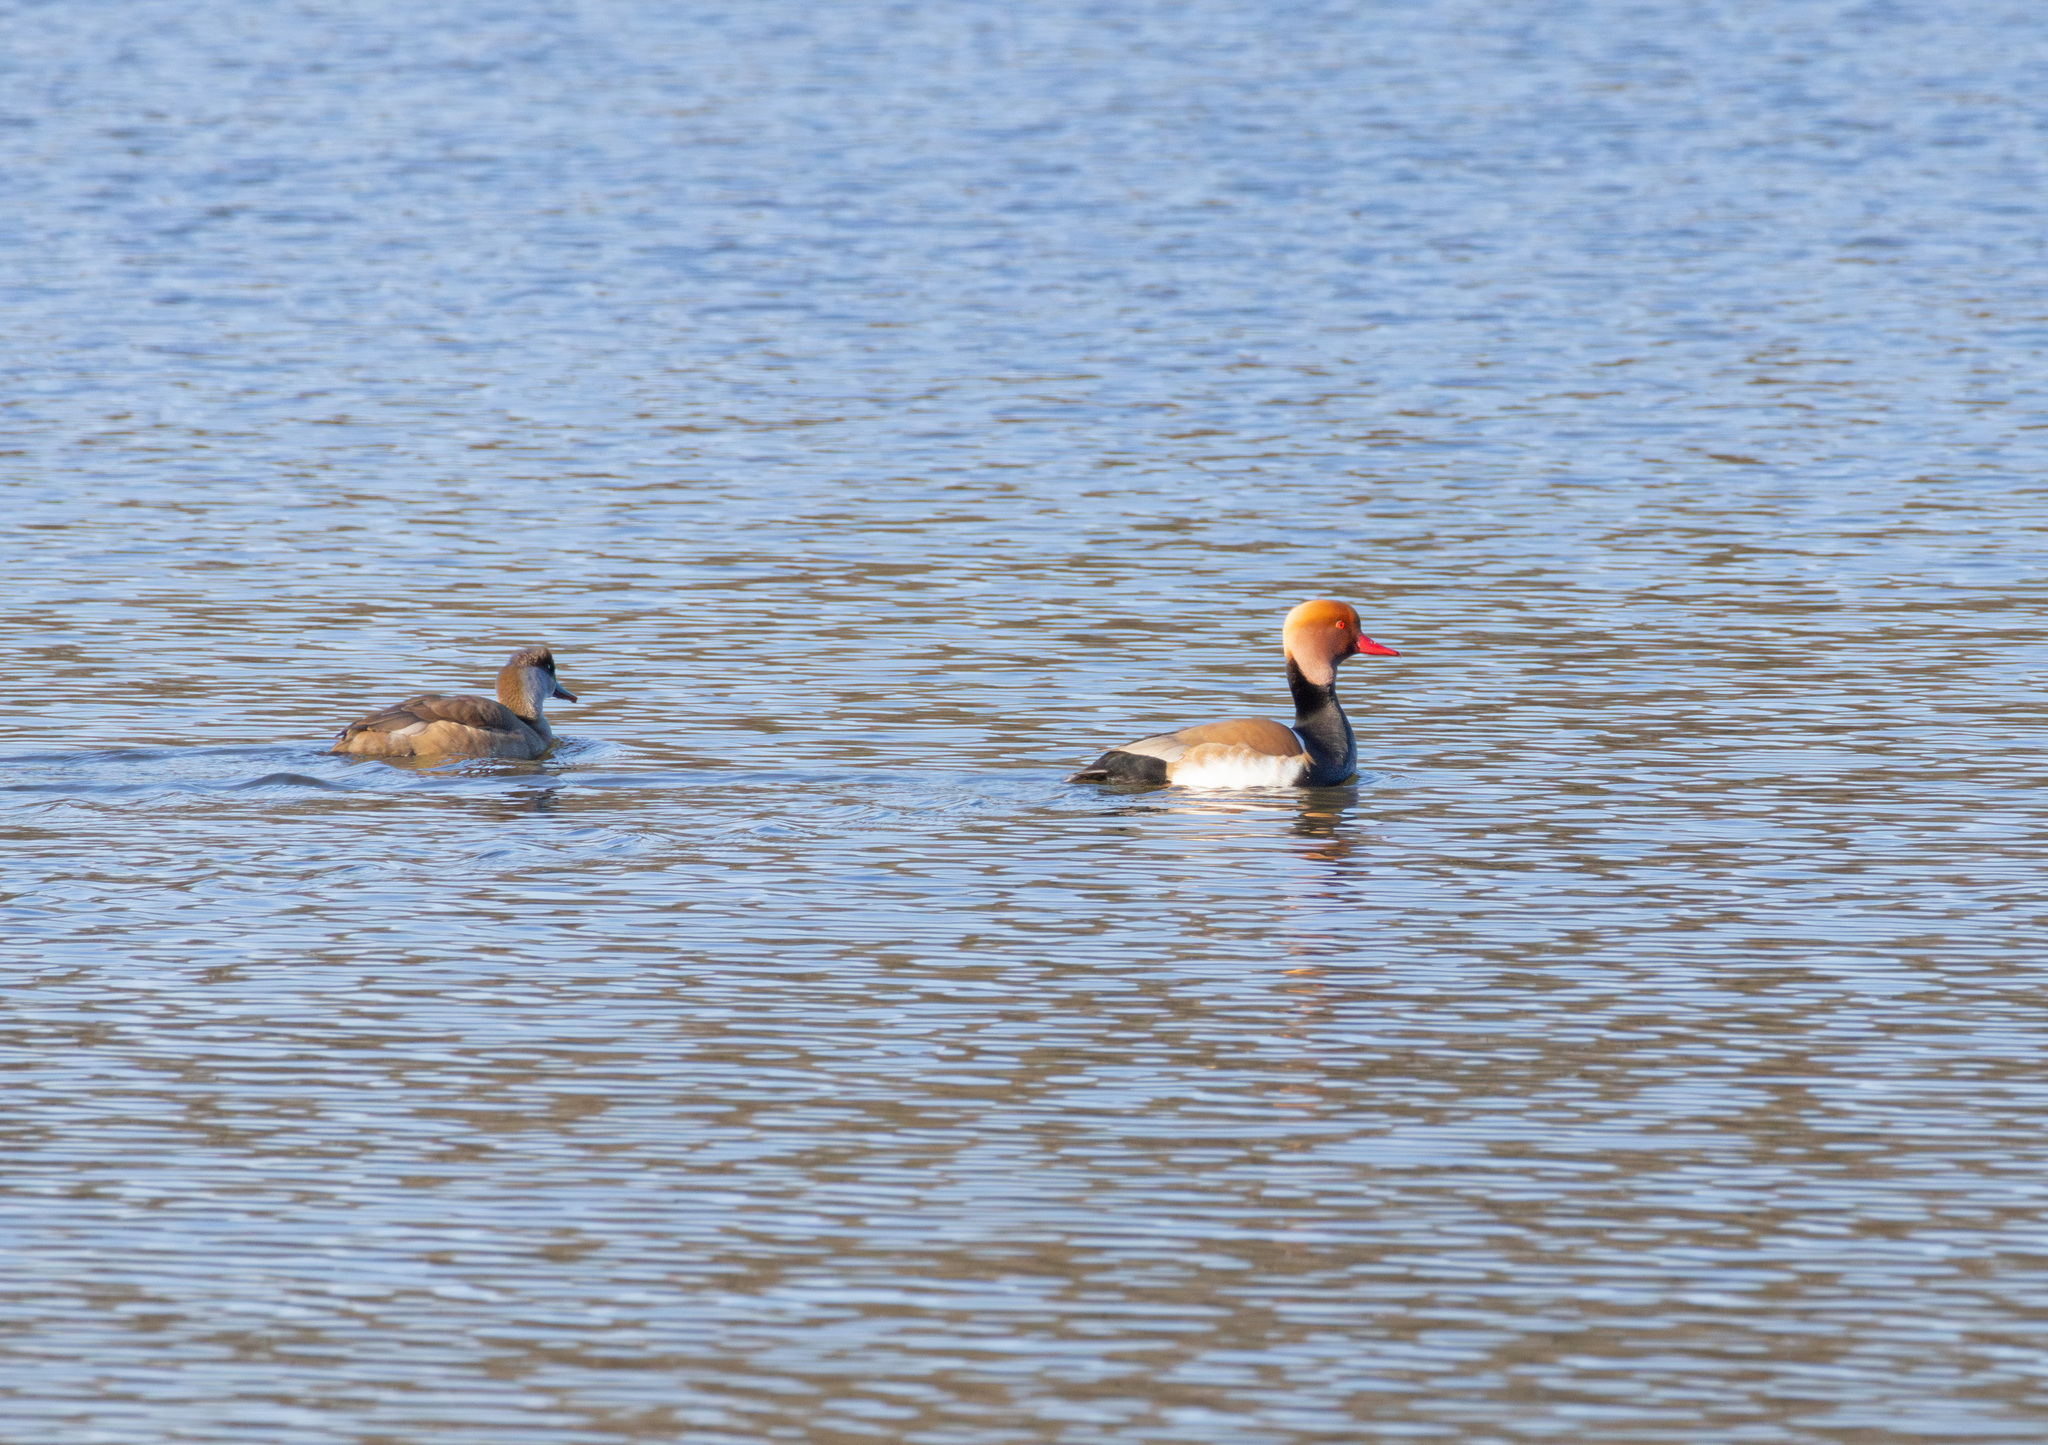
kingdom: Animalia
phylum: Chordata
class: Aves
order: Anseriformes
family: Anatidae
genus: Netta
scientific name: Netta rufina
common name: Red-crested pochard
